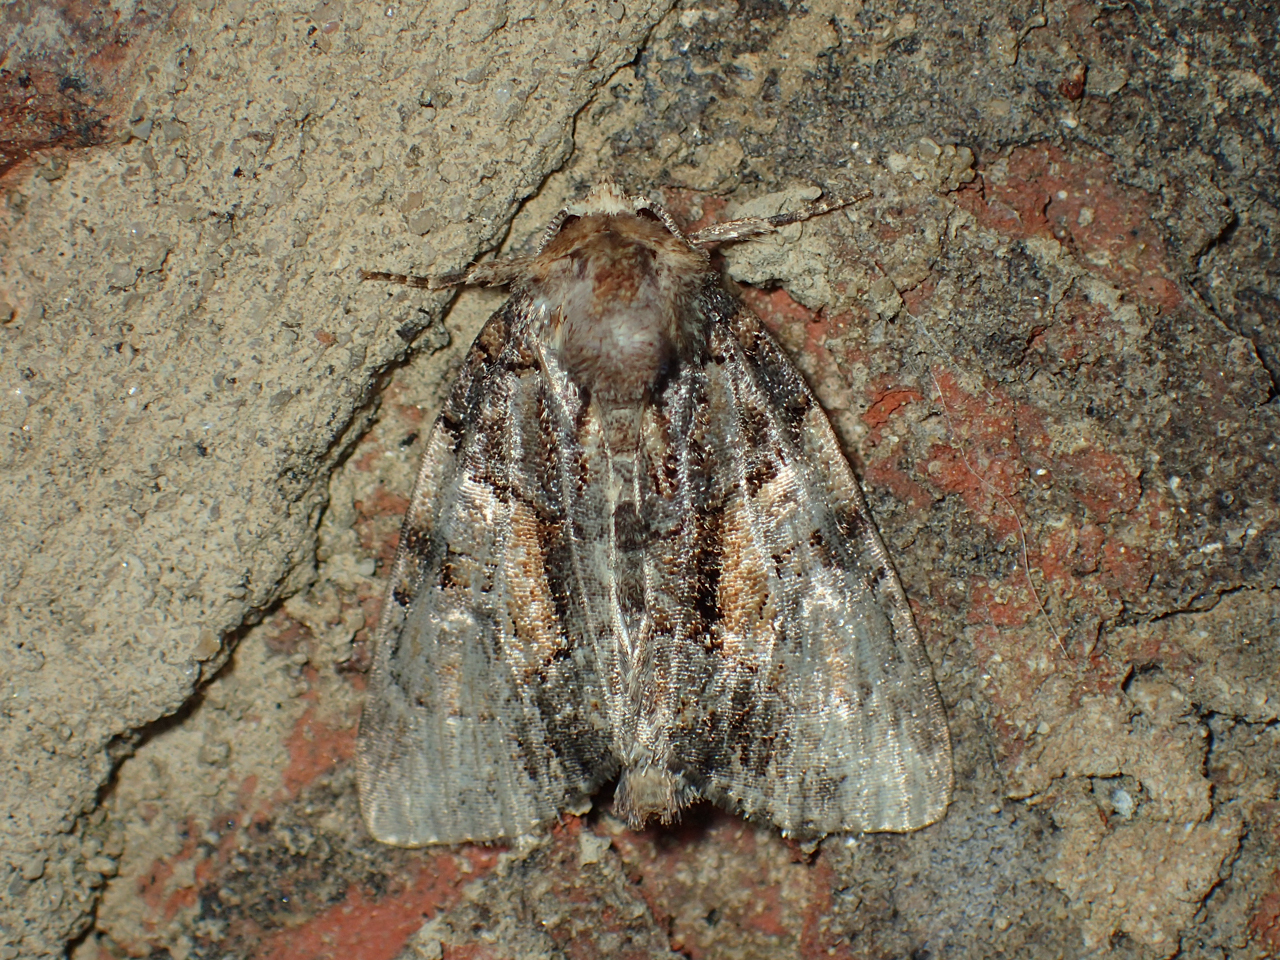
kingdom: Animalia
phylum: Arthropoda
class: Insecta
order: Lepidoptera
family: Noctuidae
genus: Chytonix
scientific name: Chytonix palliatricula
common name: Cloaked marvel
